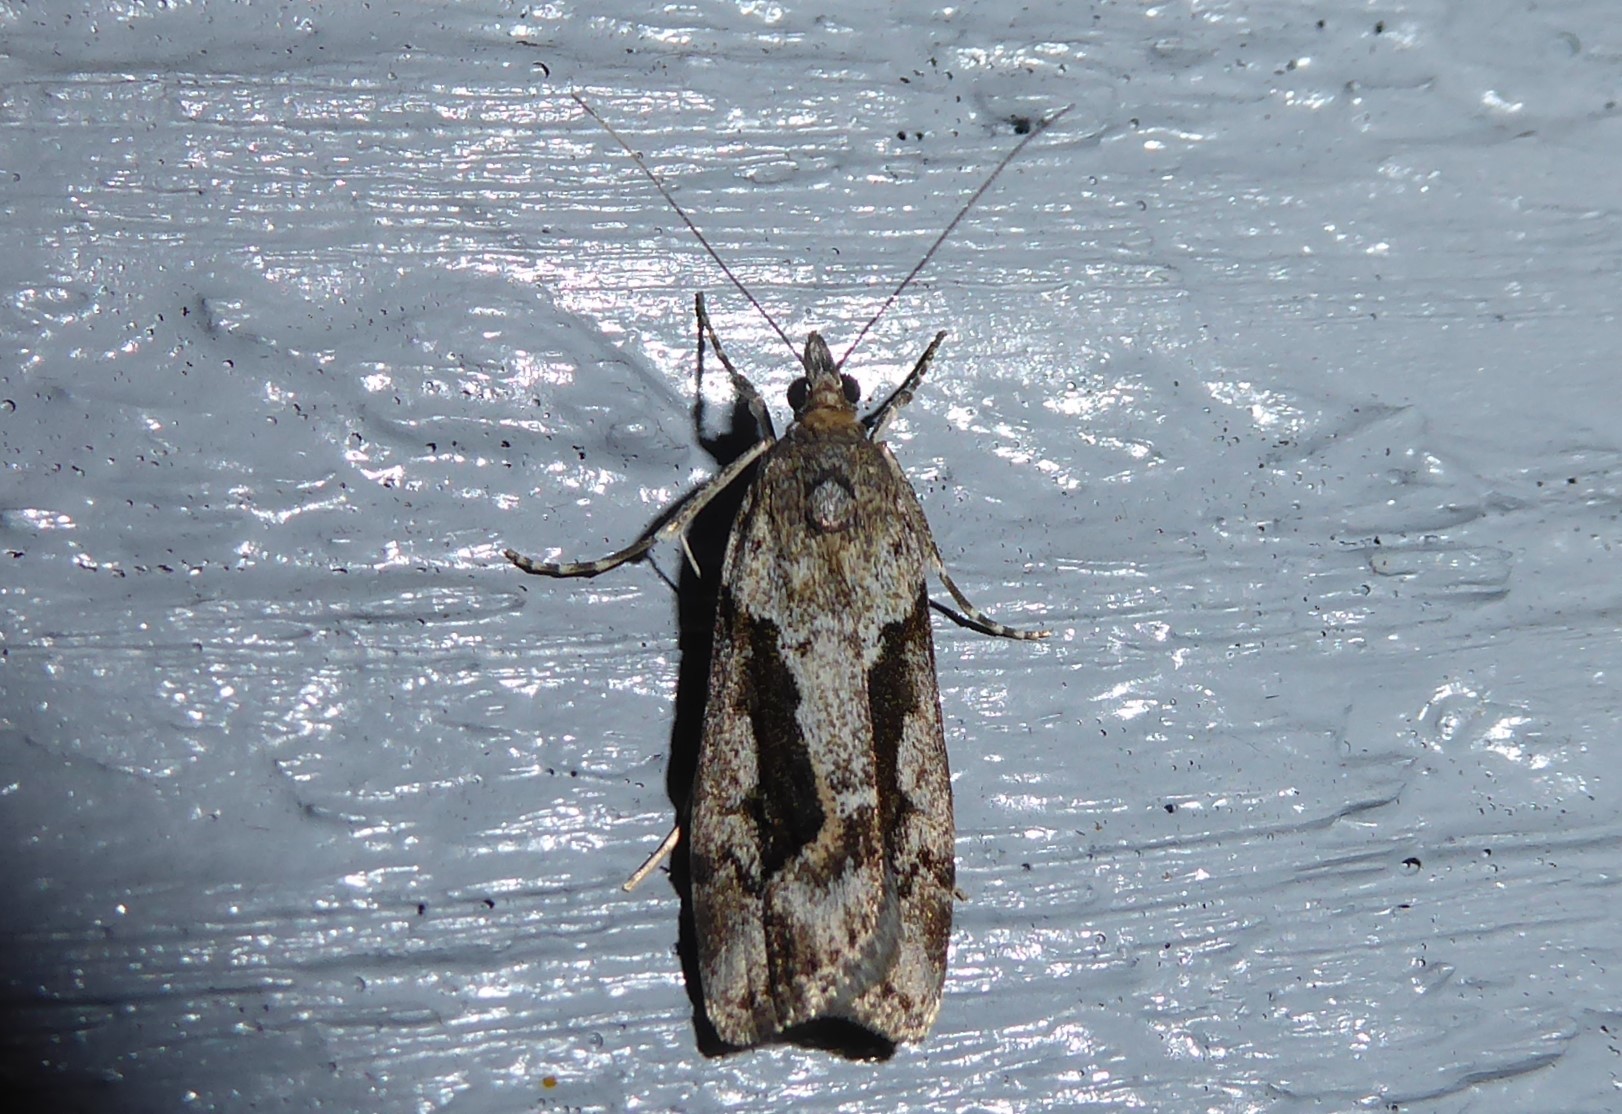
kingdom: Animalia
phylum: Arthropoda
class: Insecta
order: Lepidoptera
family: Crambidae
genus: Eudonia
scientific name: Eudonia submarginalis
